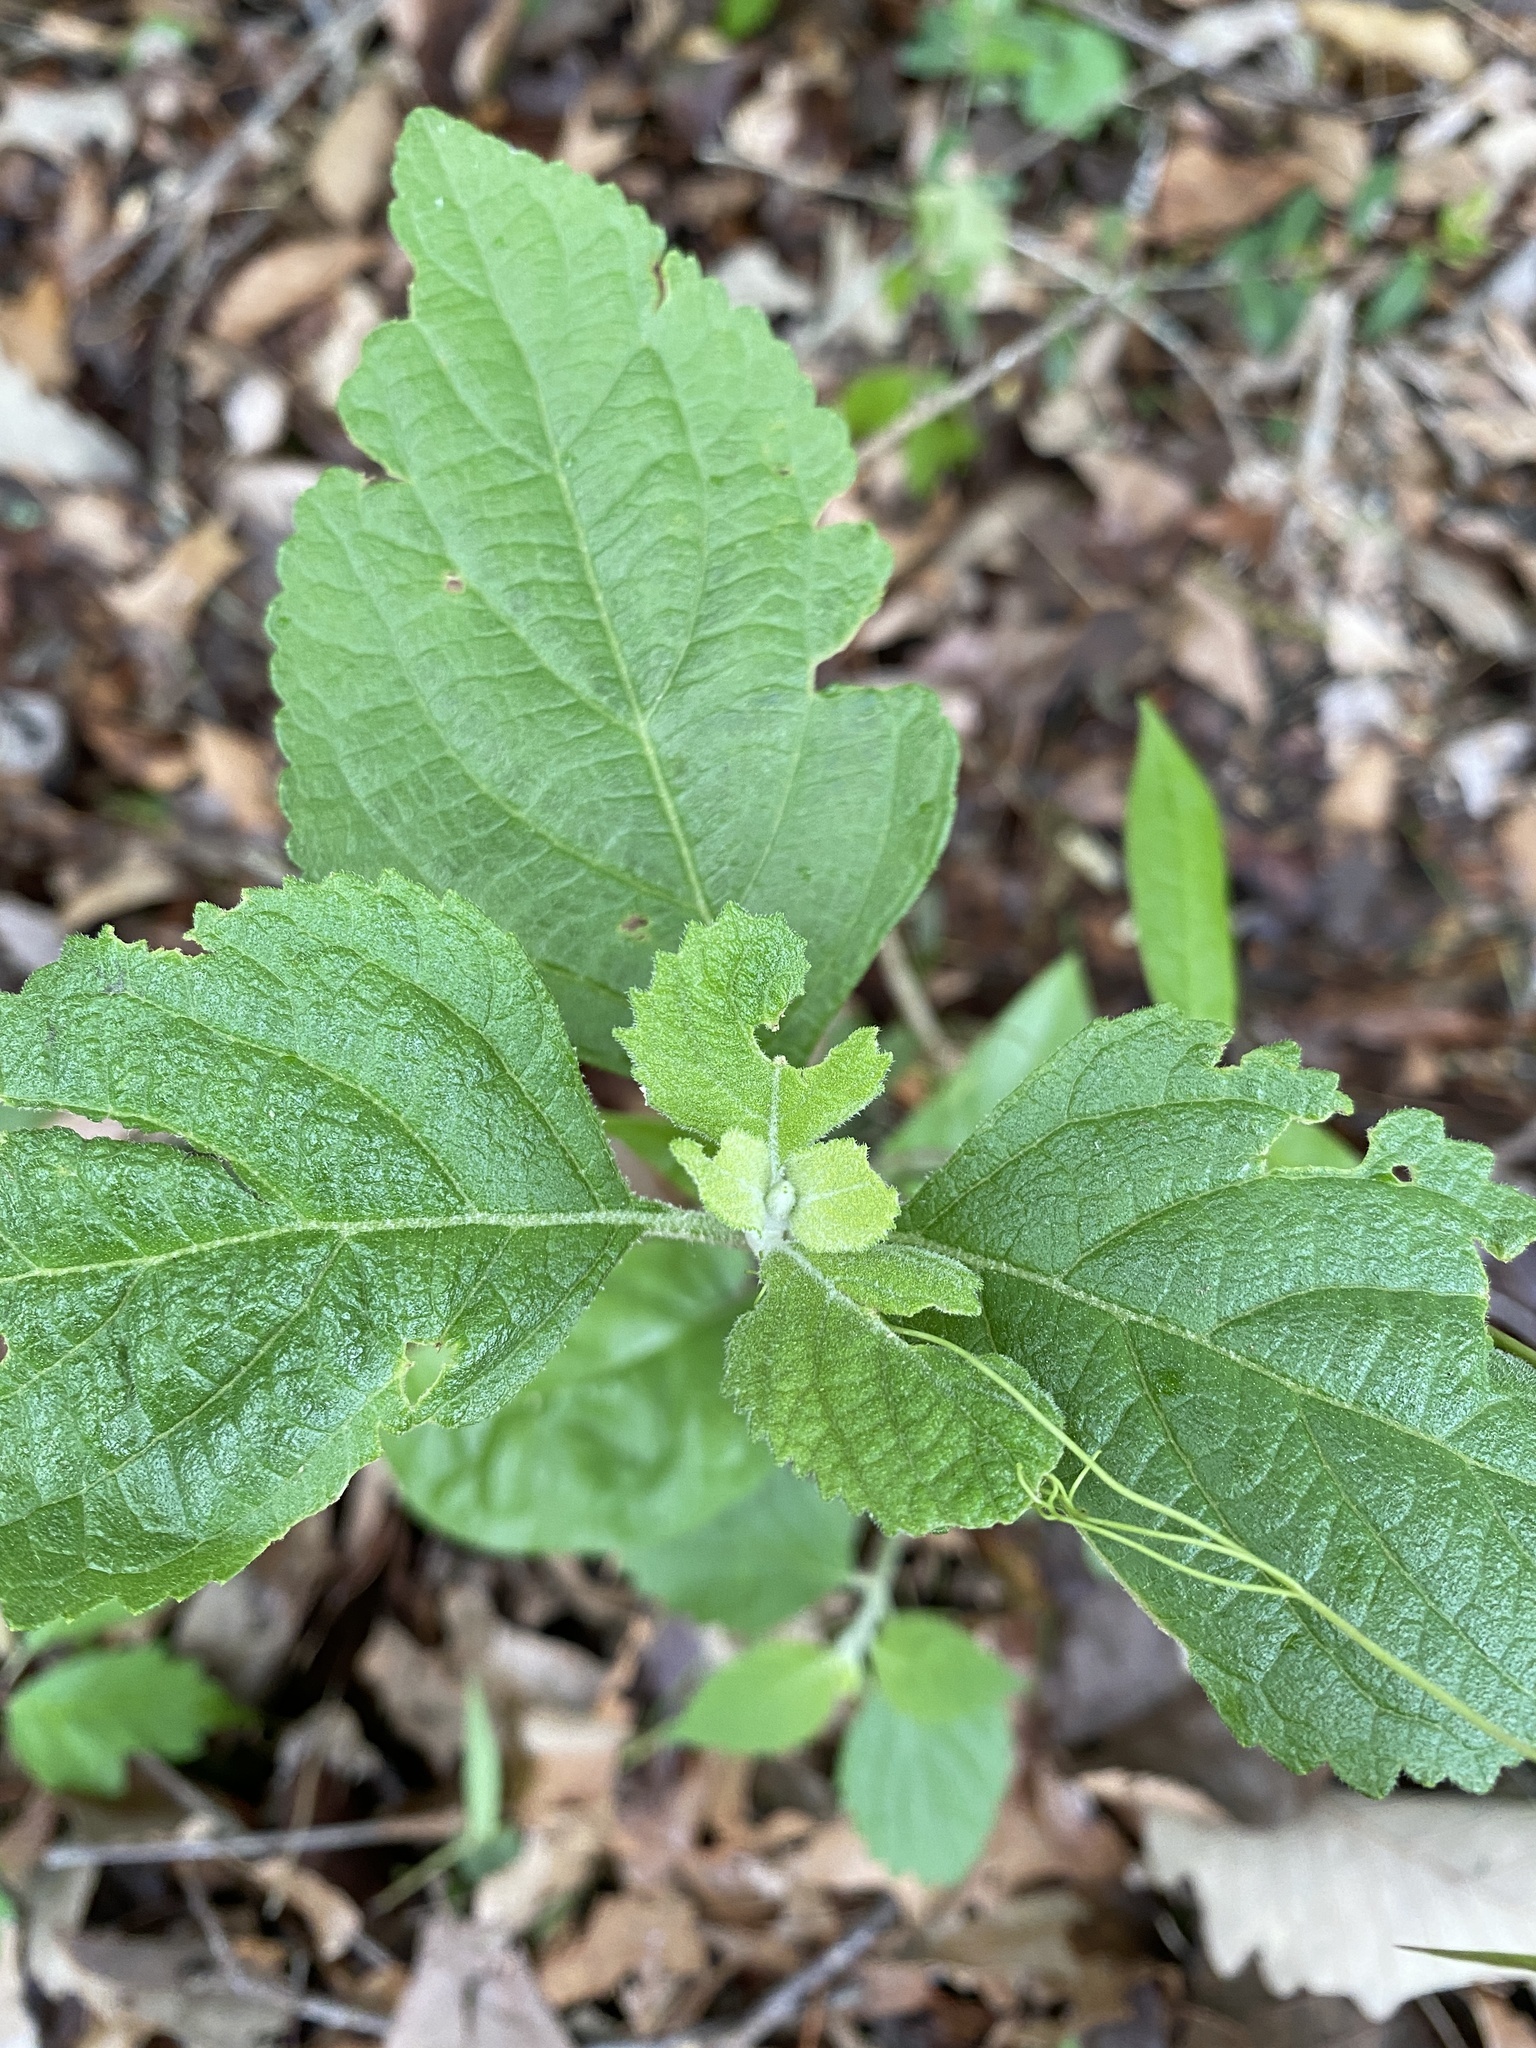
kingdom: Plantae
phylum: Tracheophyta
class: Magnoliopsida
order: Lamiales
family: Lamiaceae
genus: Callicarpa
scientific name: Callicarpa americana
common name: American beautyberry
